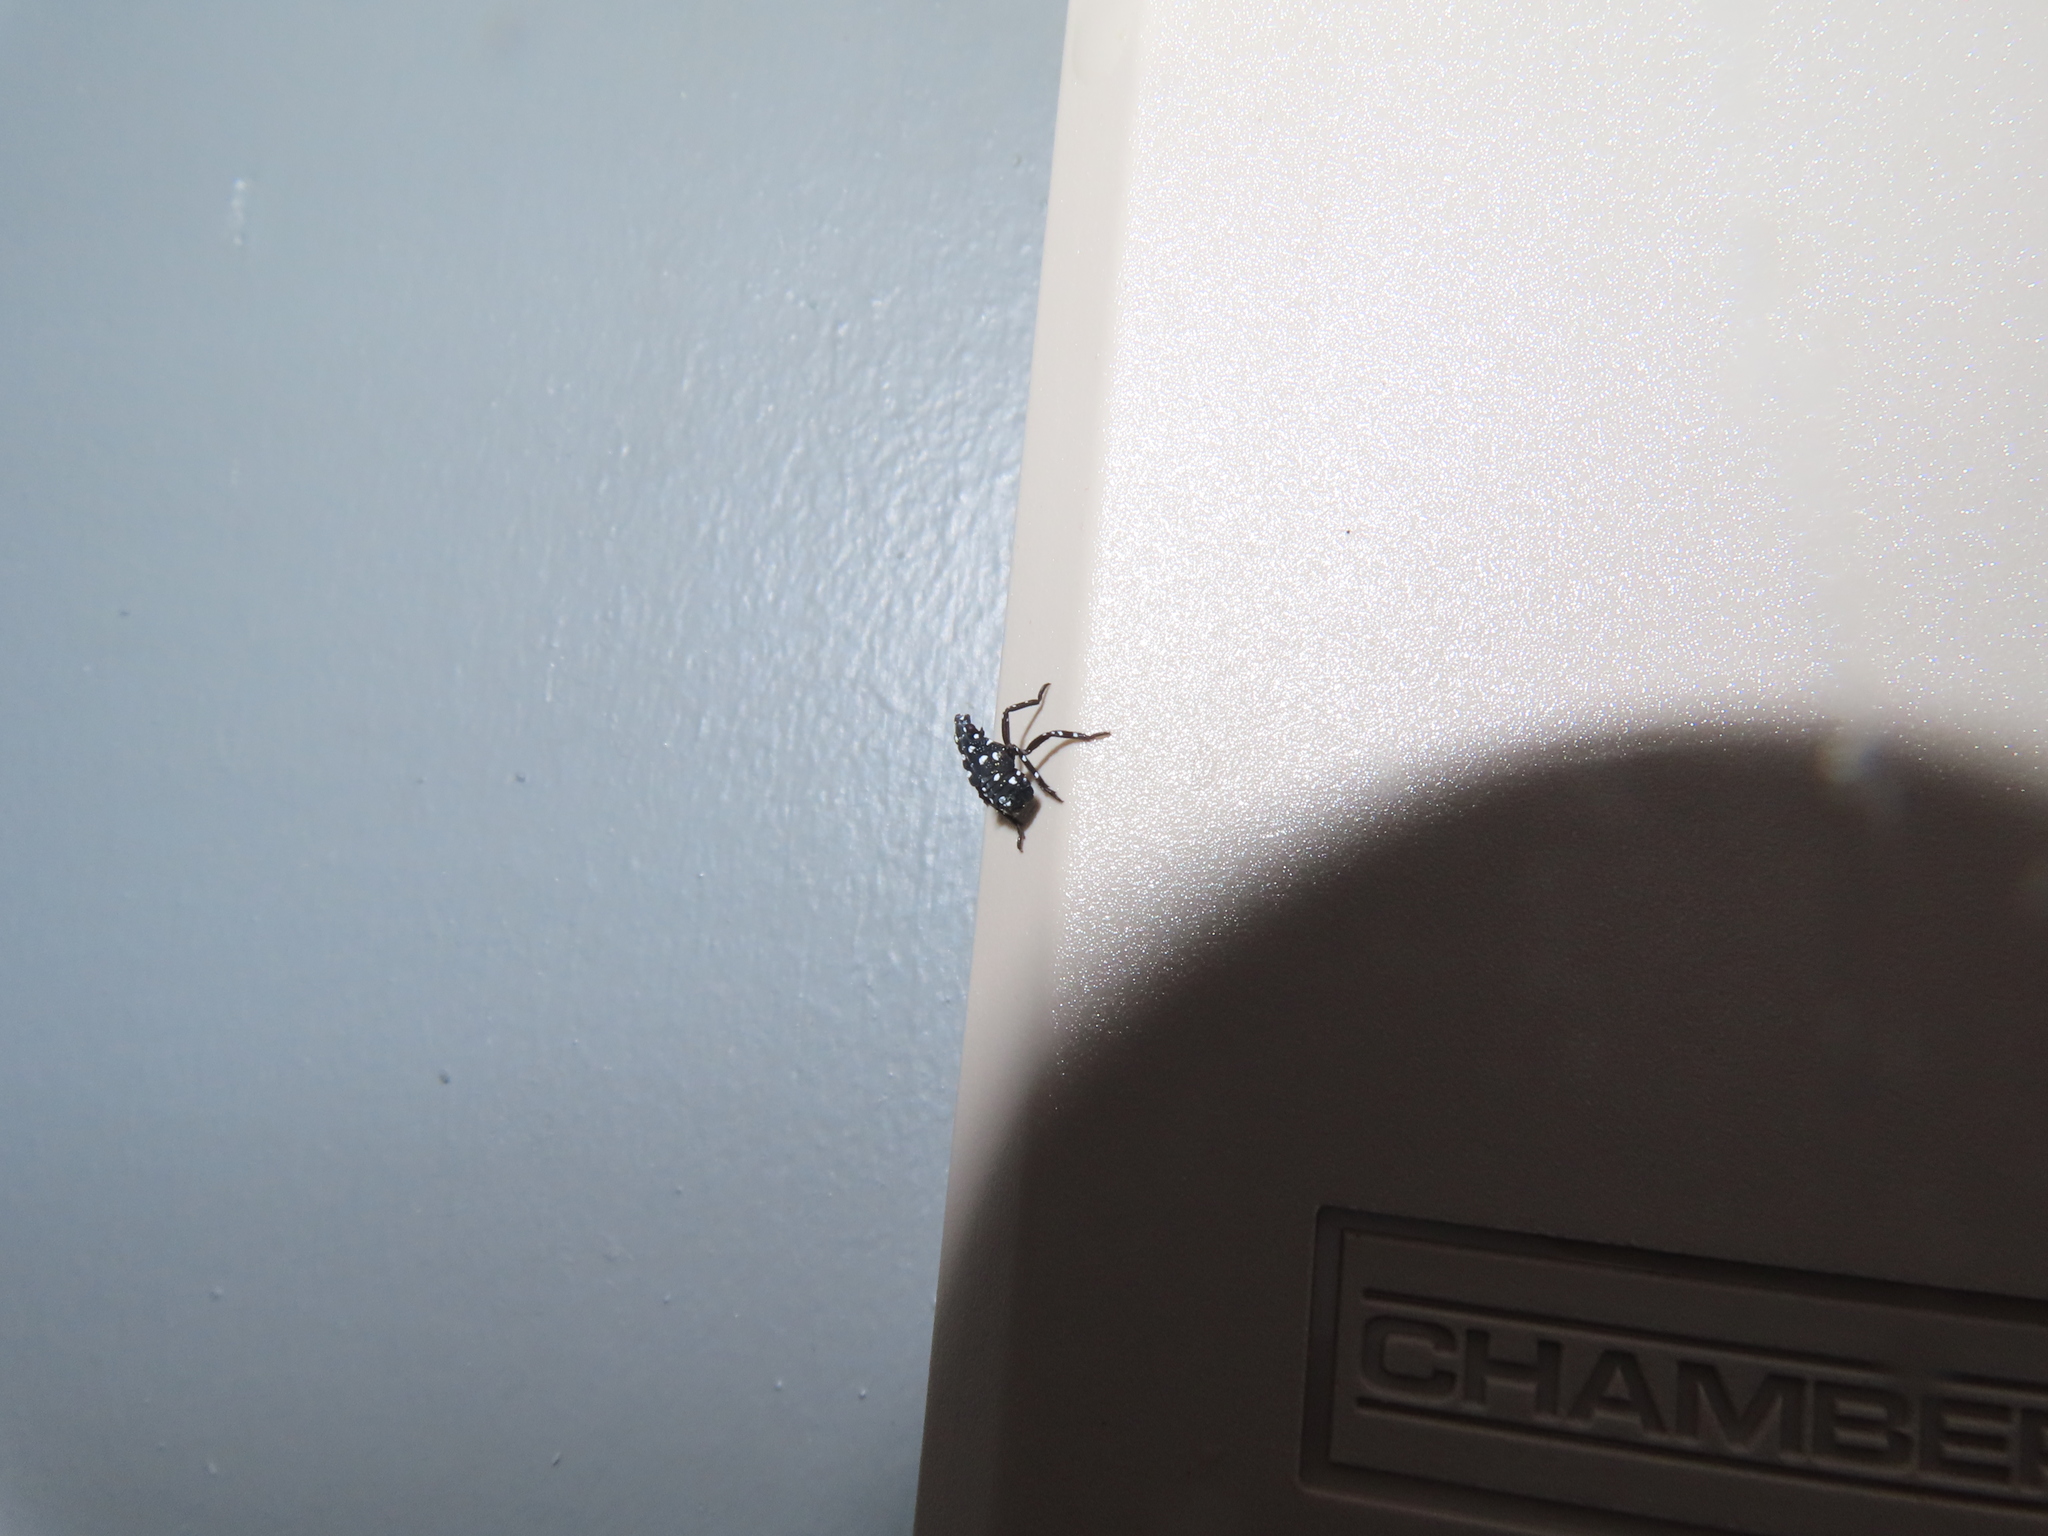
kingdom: Animalia
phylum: Arthropoda
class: Insecta
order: Hemiptera
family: Fulgoridae
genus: Lycorma
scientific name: Lycorma delicatula
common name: Spotted lanternfly
